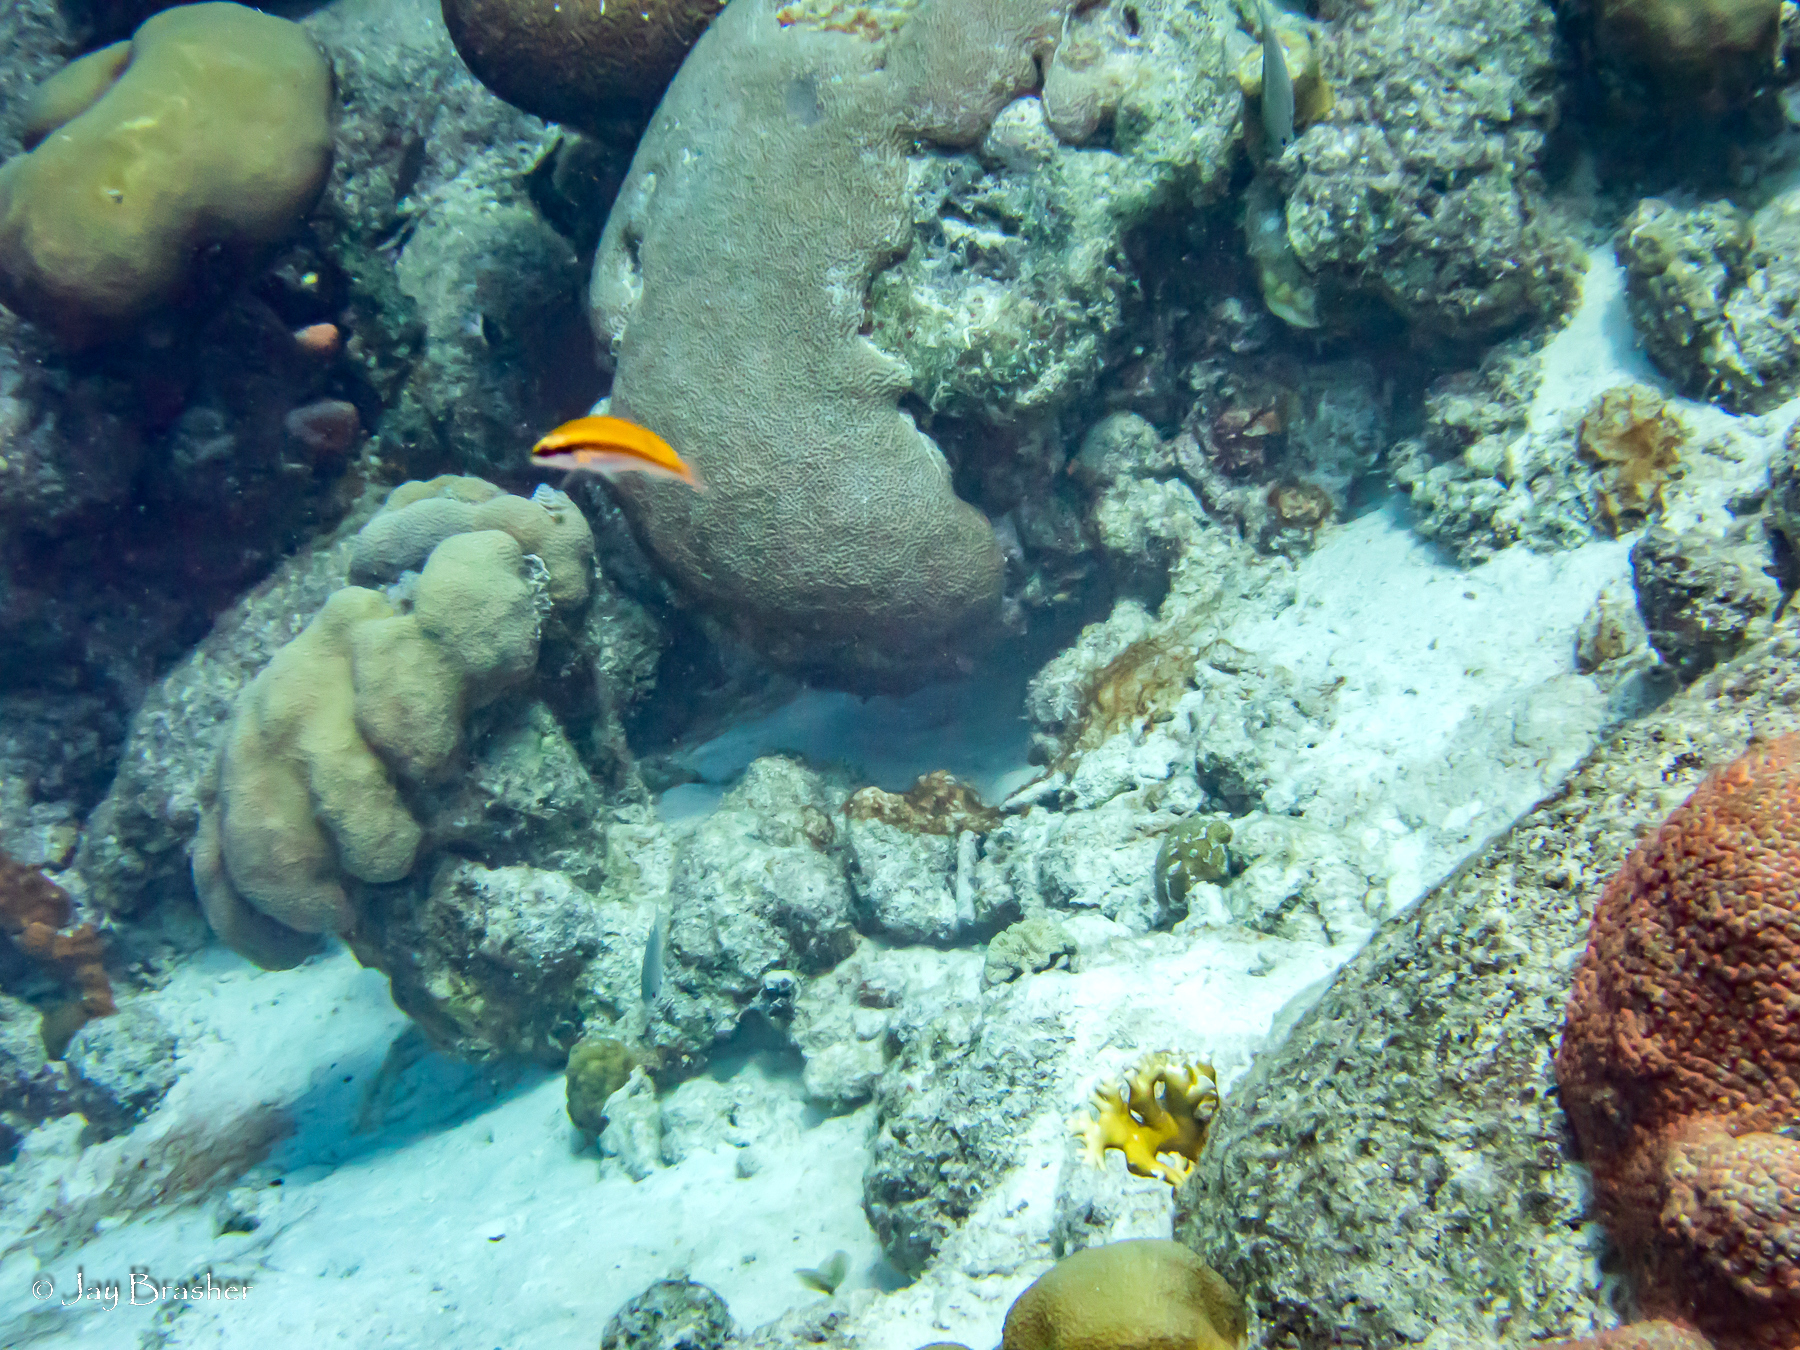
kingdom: Animalia
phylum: Chordata
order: Perciformes
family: Labridae
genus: Thalassoma
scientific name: Thalassoma bifasciatum
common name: Bluehead wrasse
